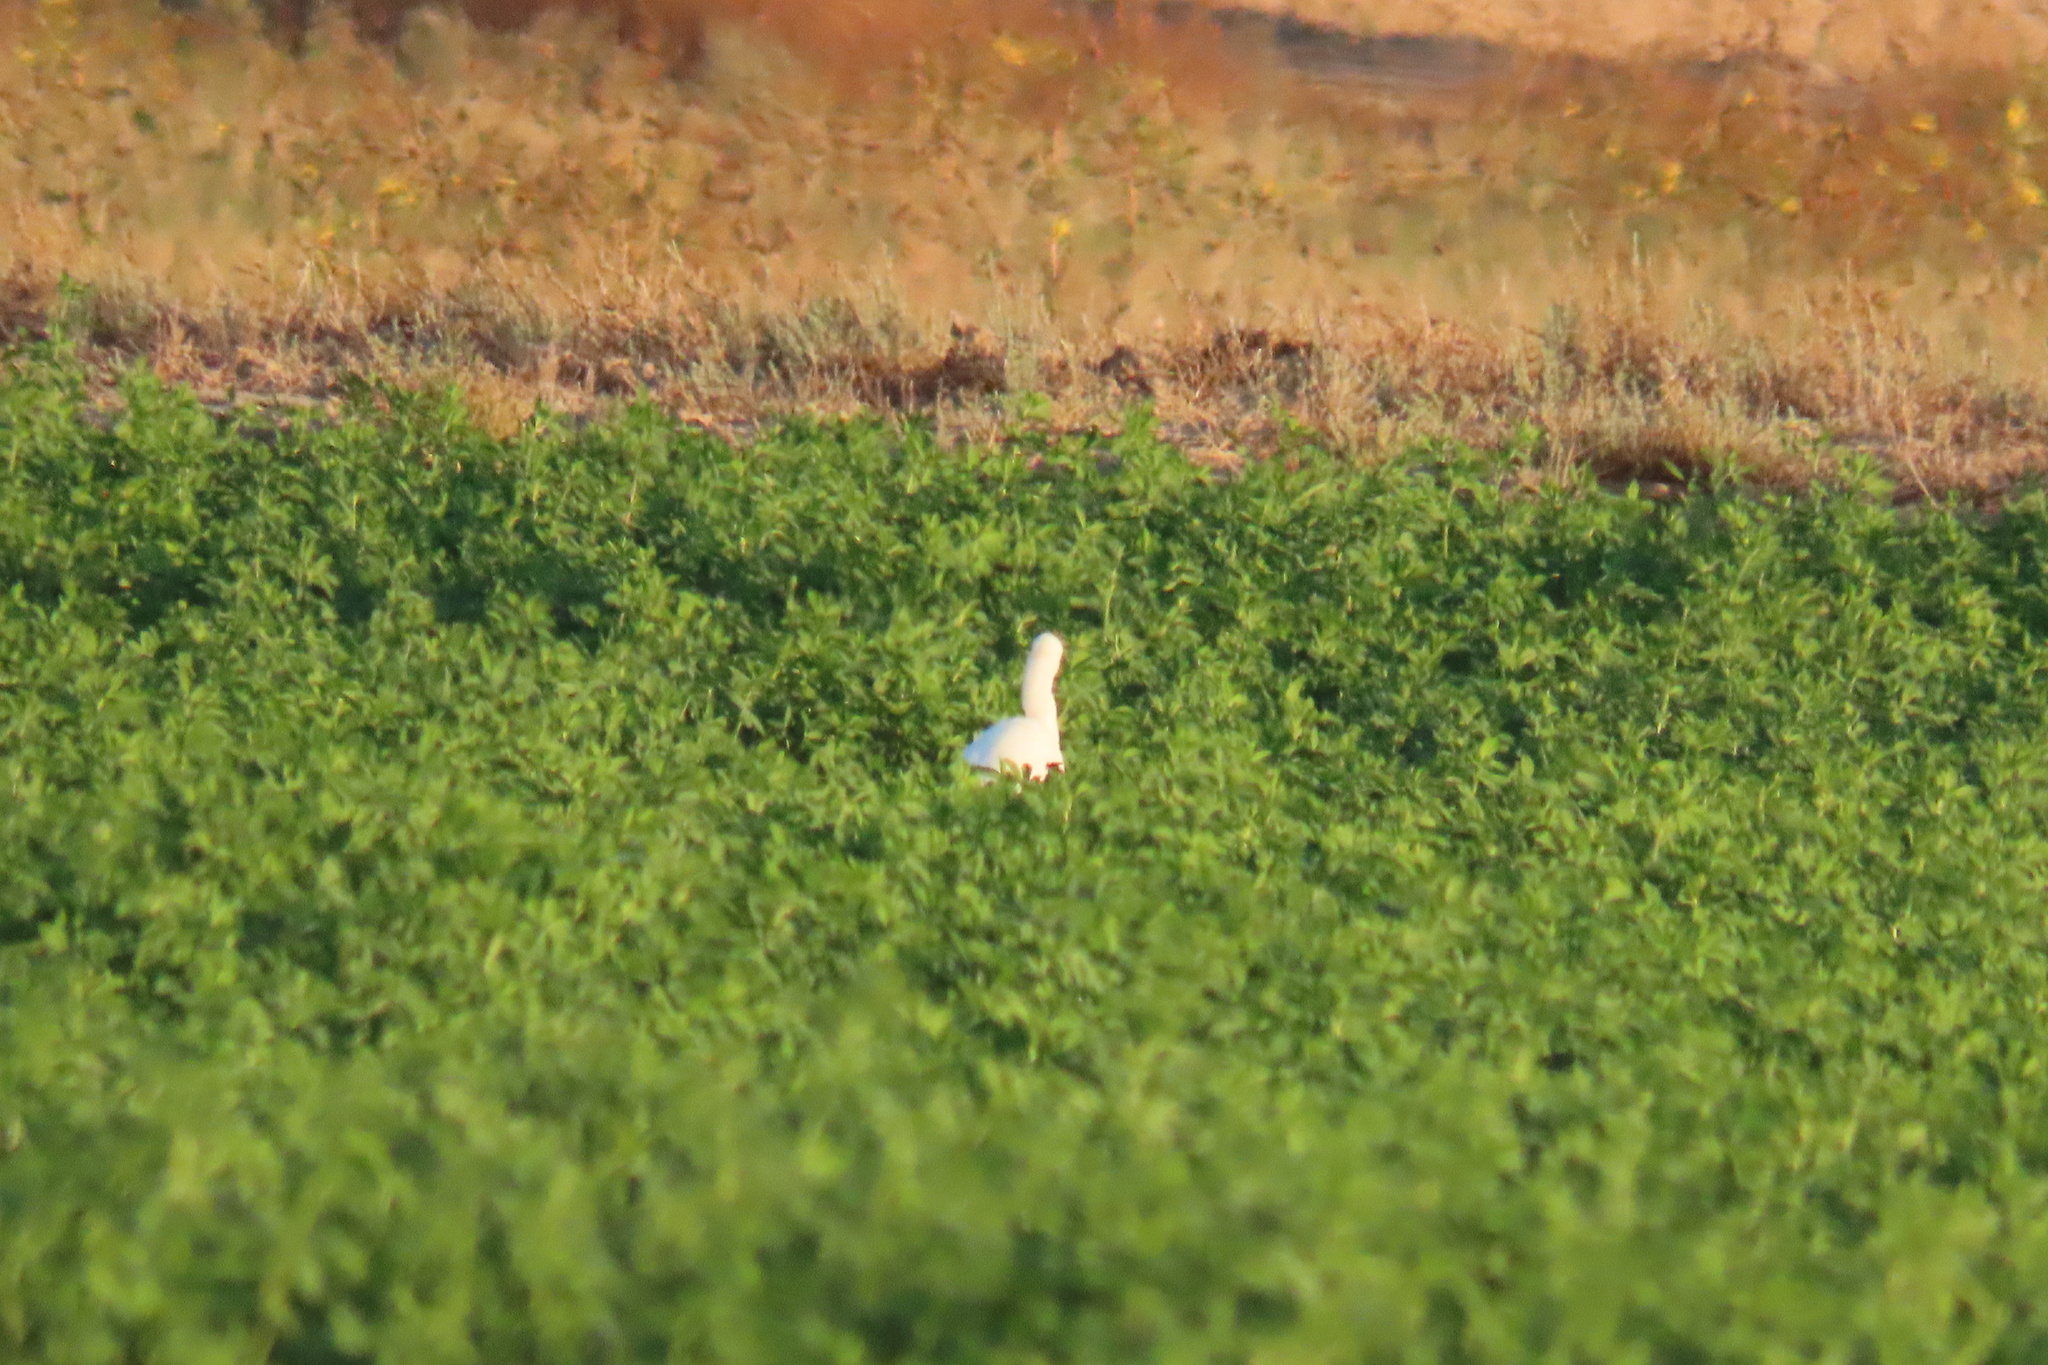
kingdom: Animalia
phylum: Chordata
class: Aves
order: Pelecaniformes
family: Ardeidae
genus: Bubulcus
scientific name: Bubulcus ibis
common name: Cattle egret
